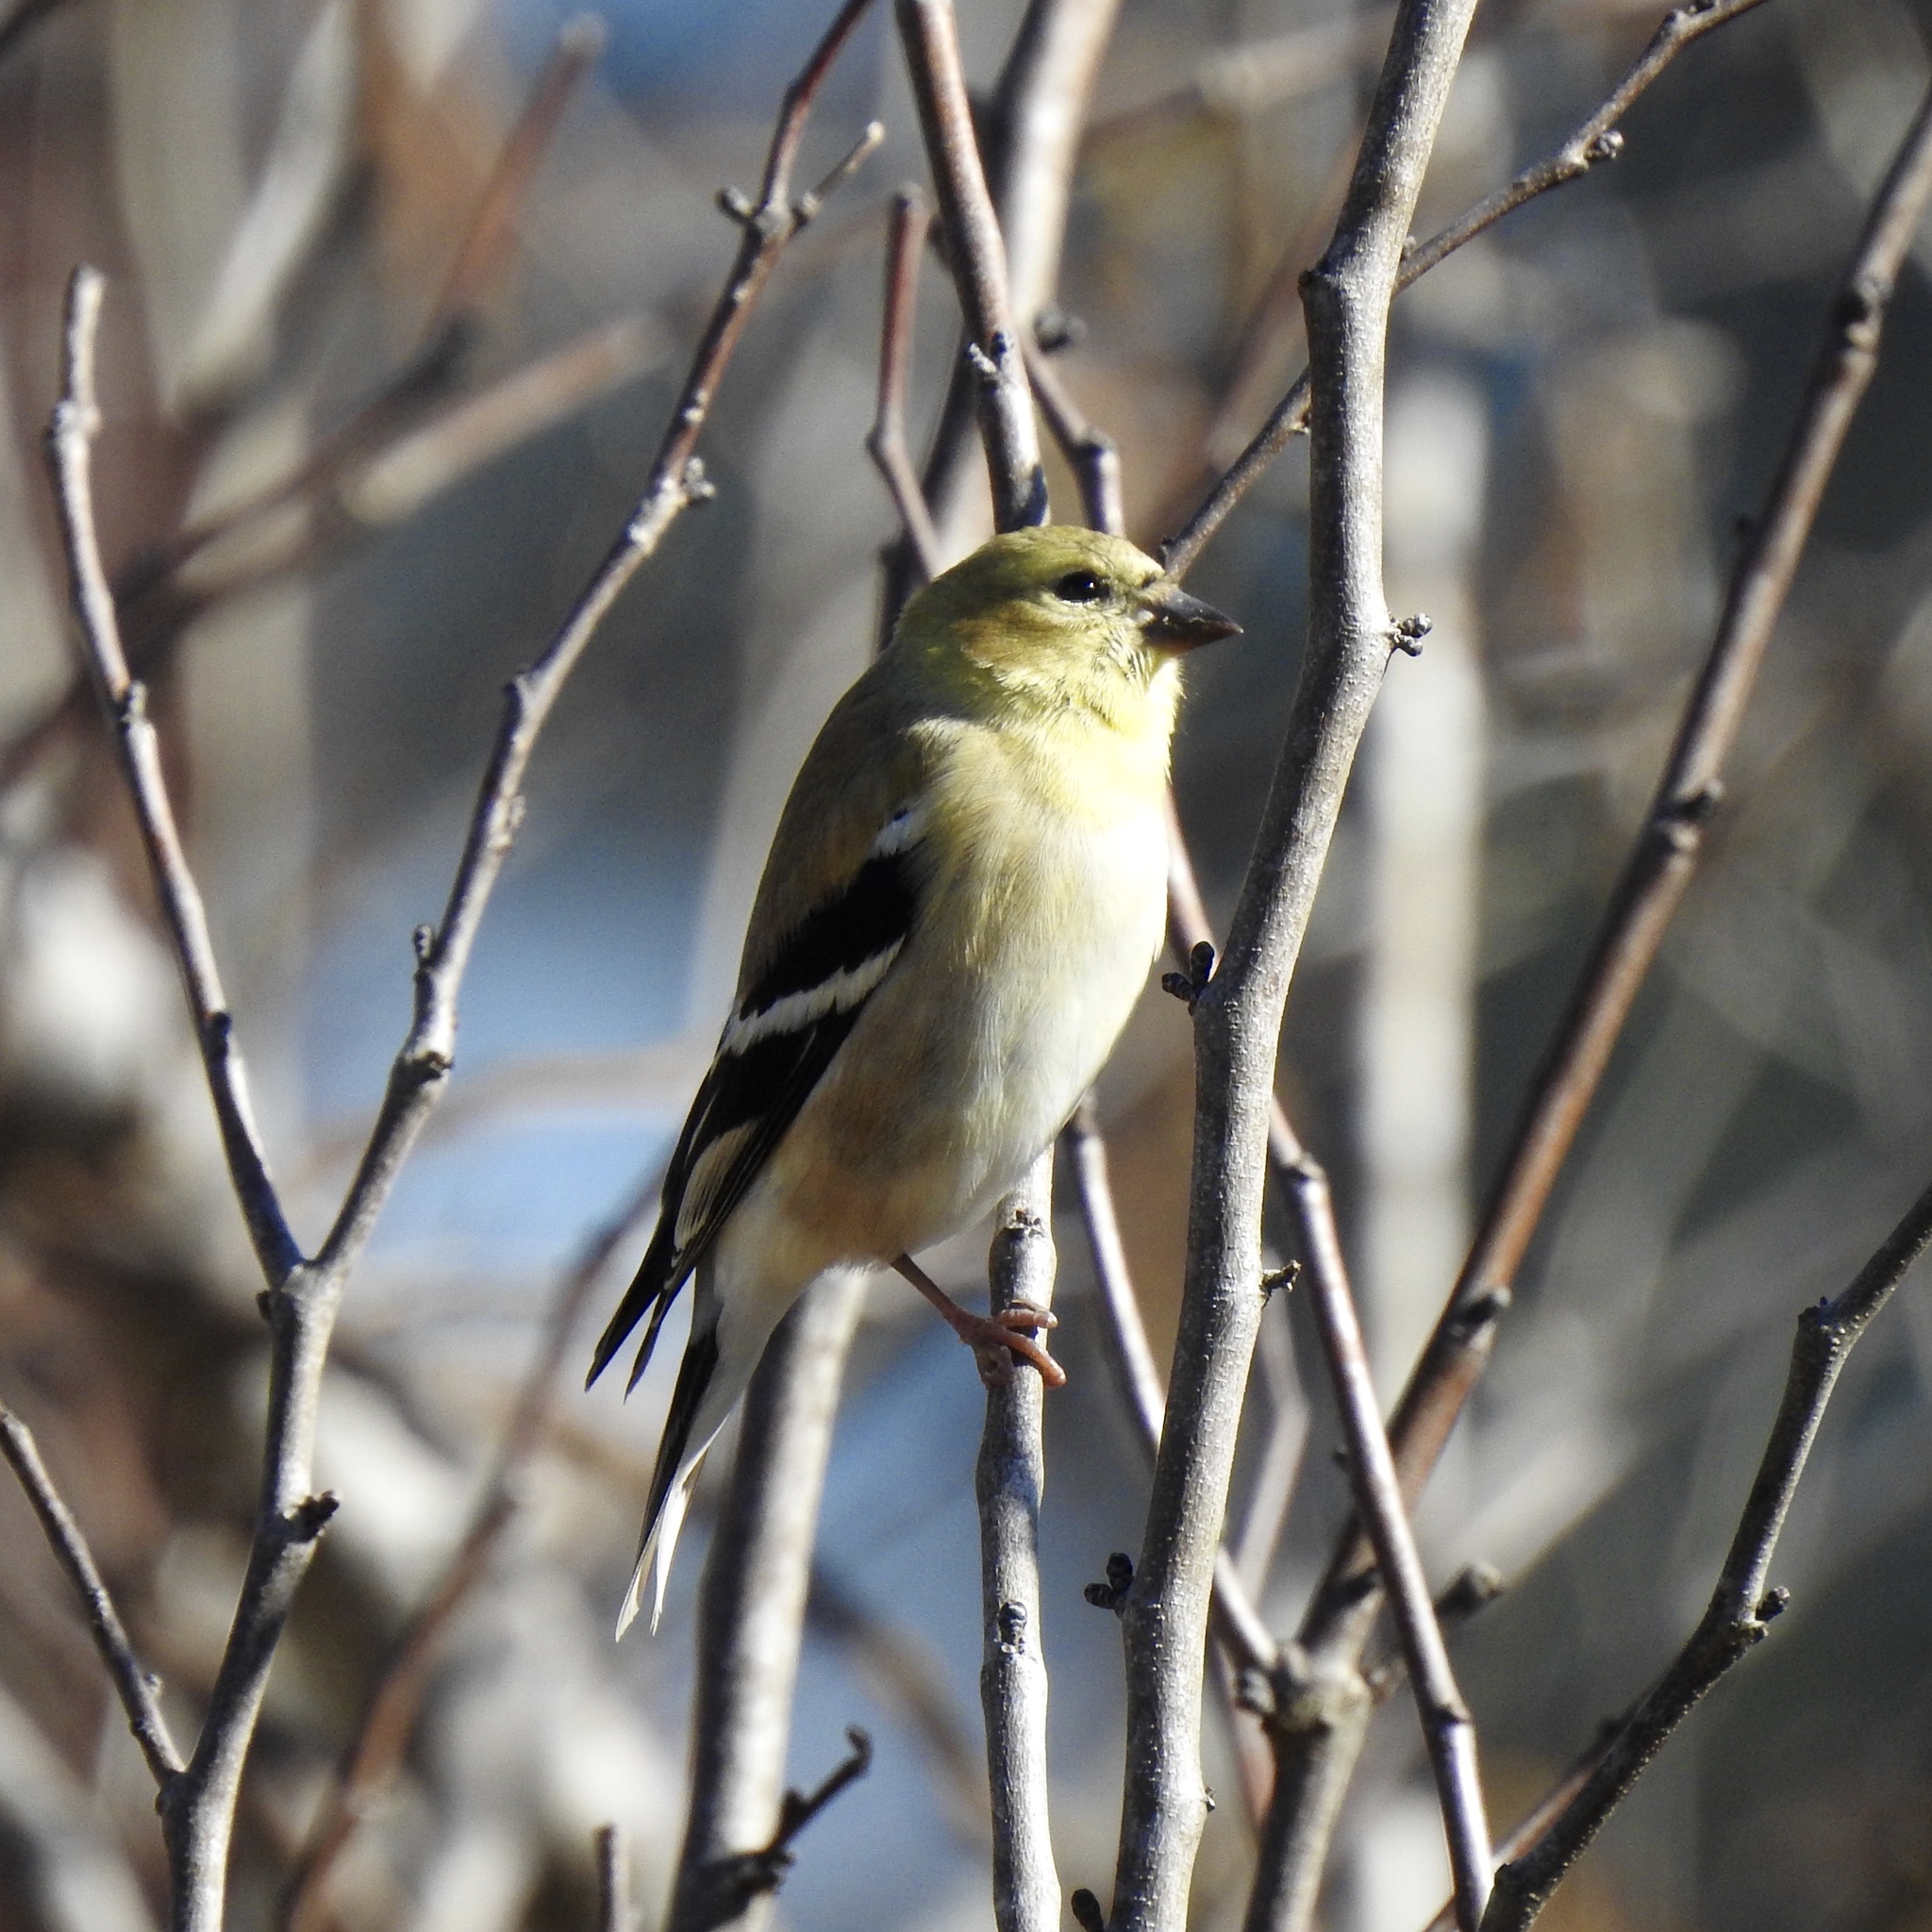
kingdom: Animalia
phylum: Chordata
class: Aves
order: Passeriformes
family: Fringillidae
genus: Spinus
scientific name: Spinus tristis
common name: American goldfinch
